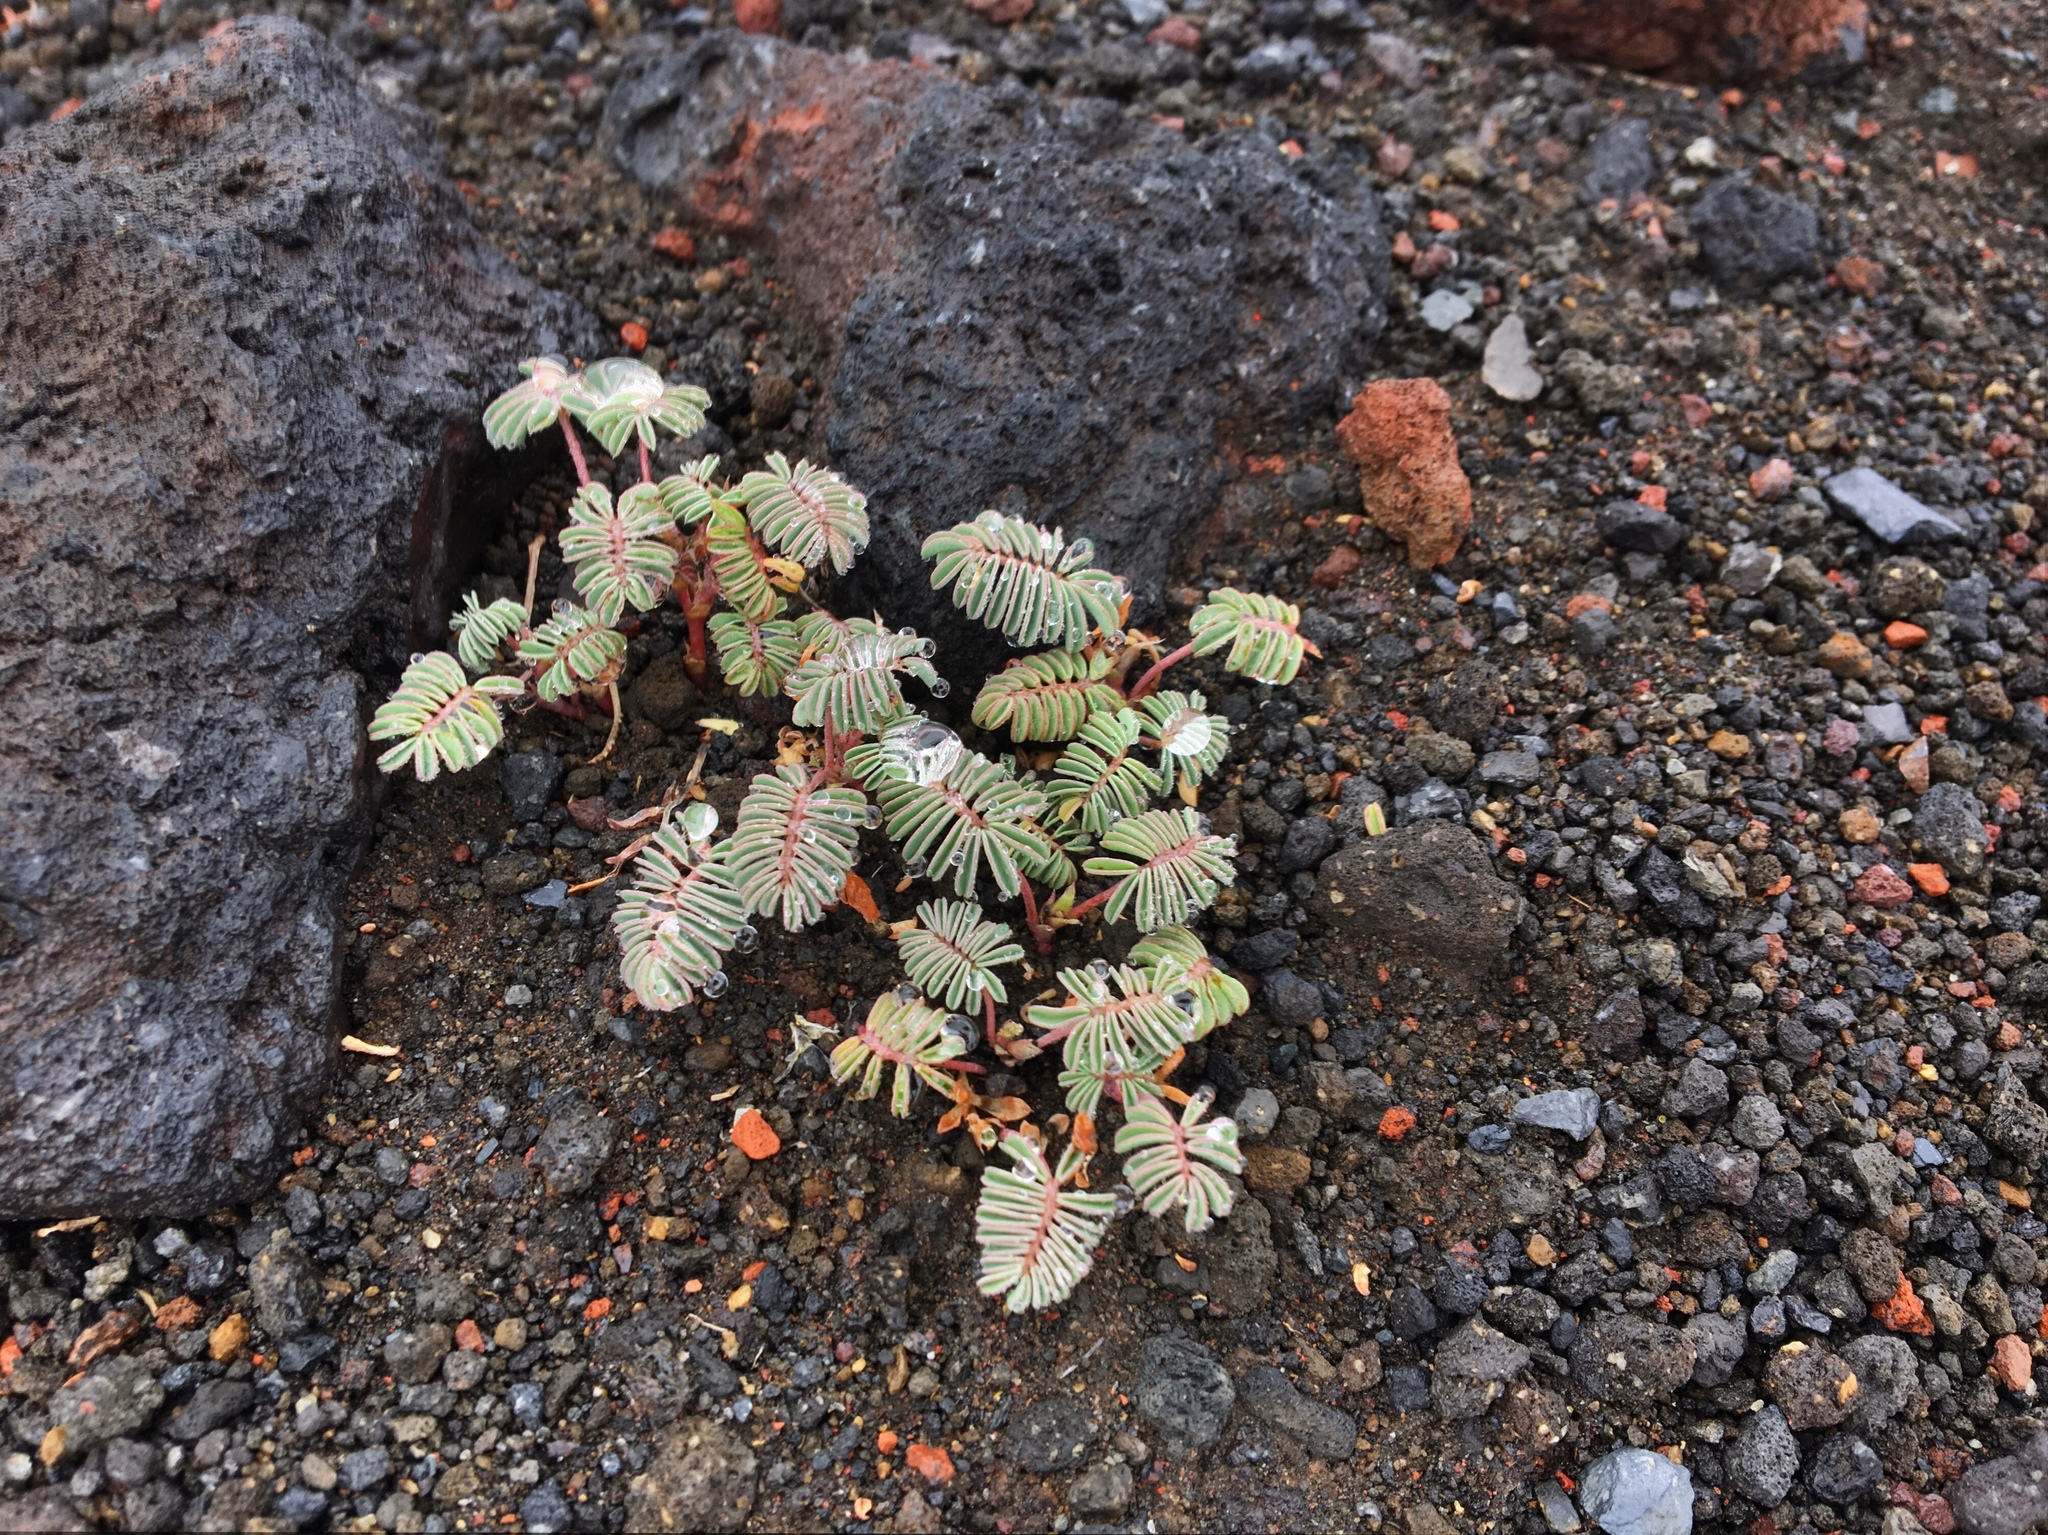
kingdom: Plantae
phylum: Tracheophyta
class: Magnoliopsida
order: Fabales
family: Fabaceae
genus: Adesmia
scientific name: Adesmia longipes
